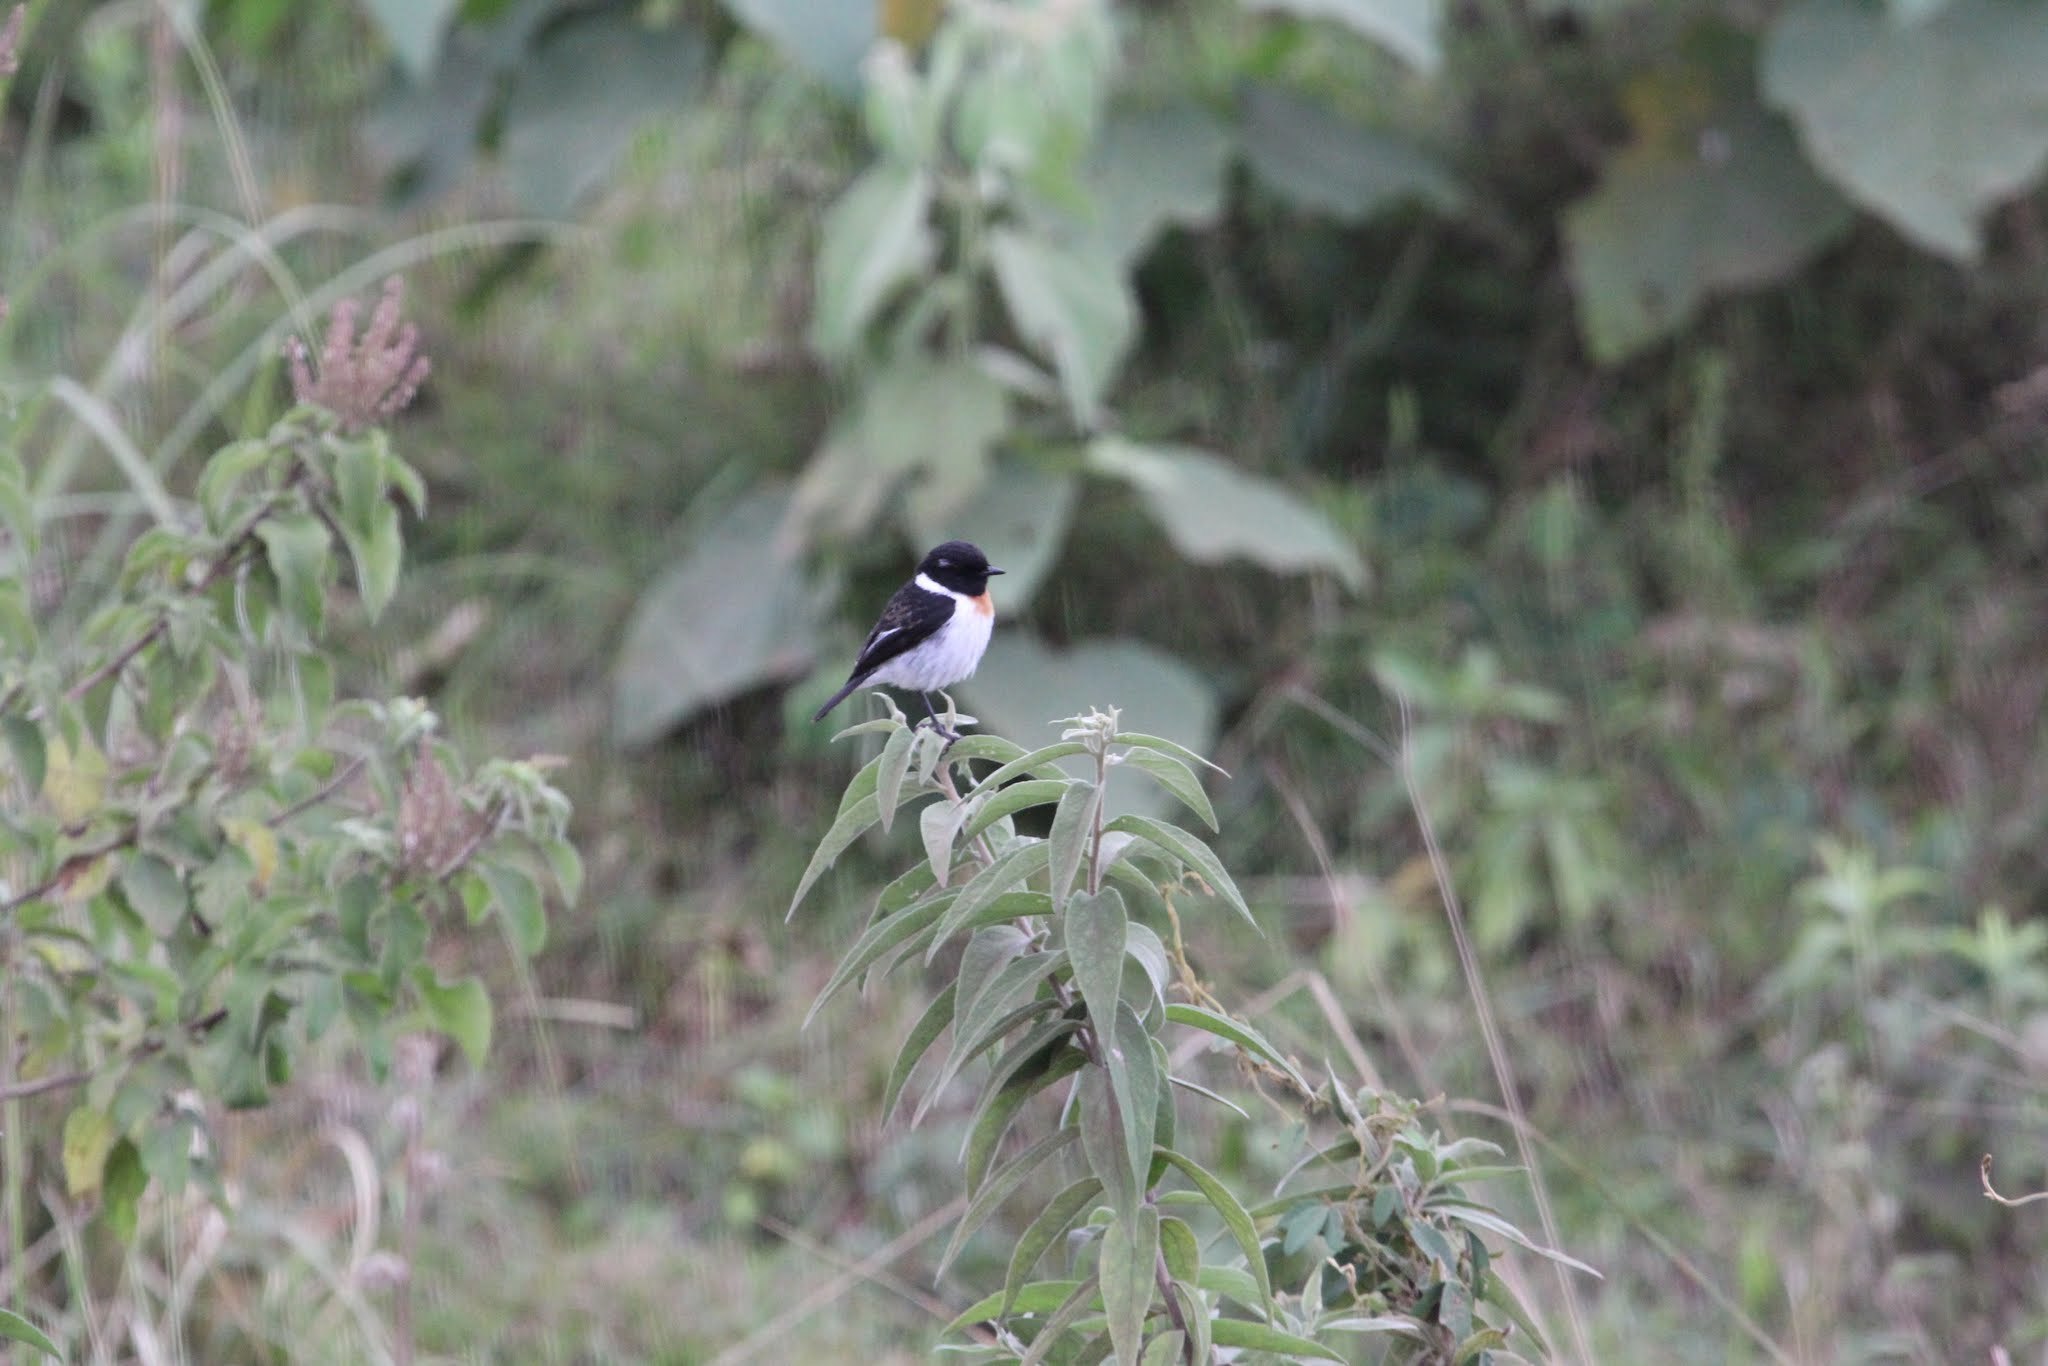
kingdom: Animalia
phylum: Chordata
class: Aves
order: Passeriformes
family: Muscicapidae
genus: Saxicola
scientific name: Saxicola torquatus
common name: African stonechat
